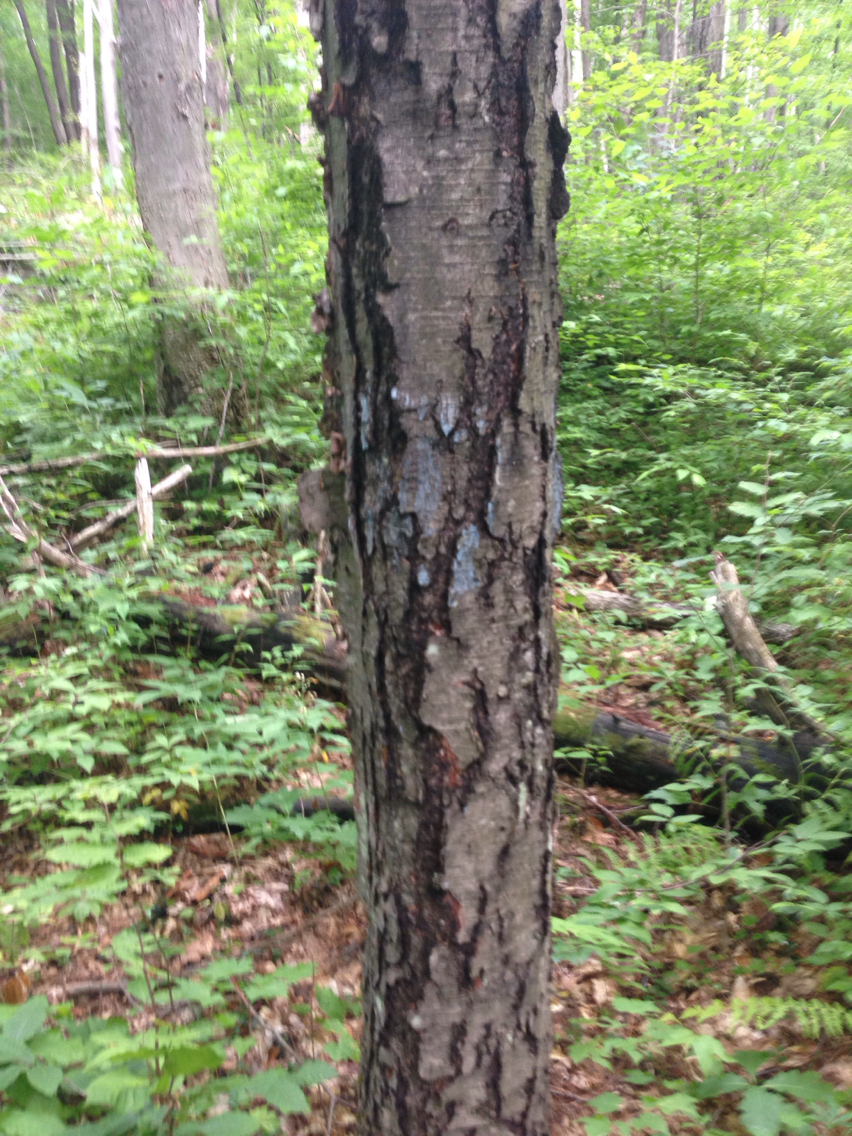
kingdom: Plantae
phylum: Tracheophyta
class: Magnoliopsida
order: Fagales
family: Betulaceae
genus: Betula
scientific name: Betula lenta
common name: Black birch
